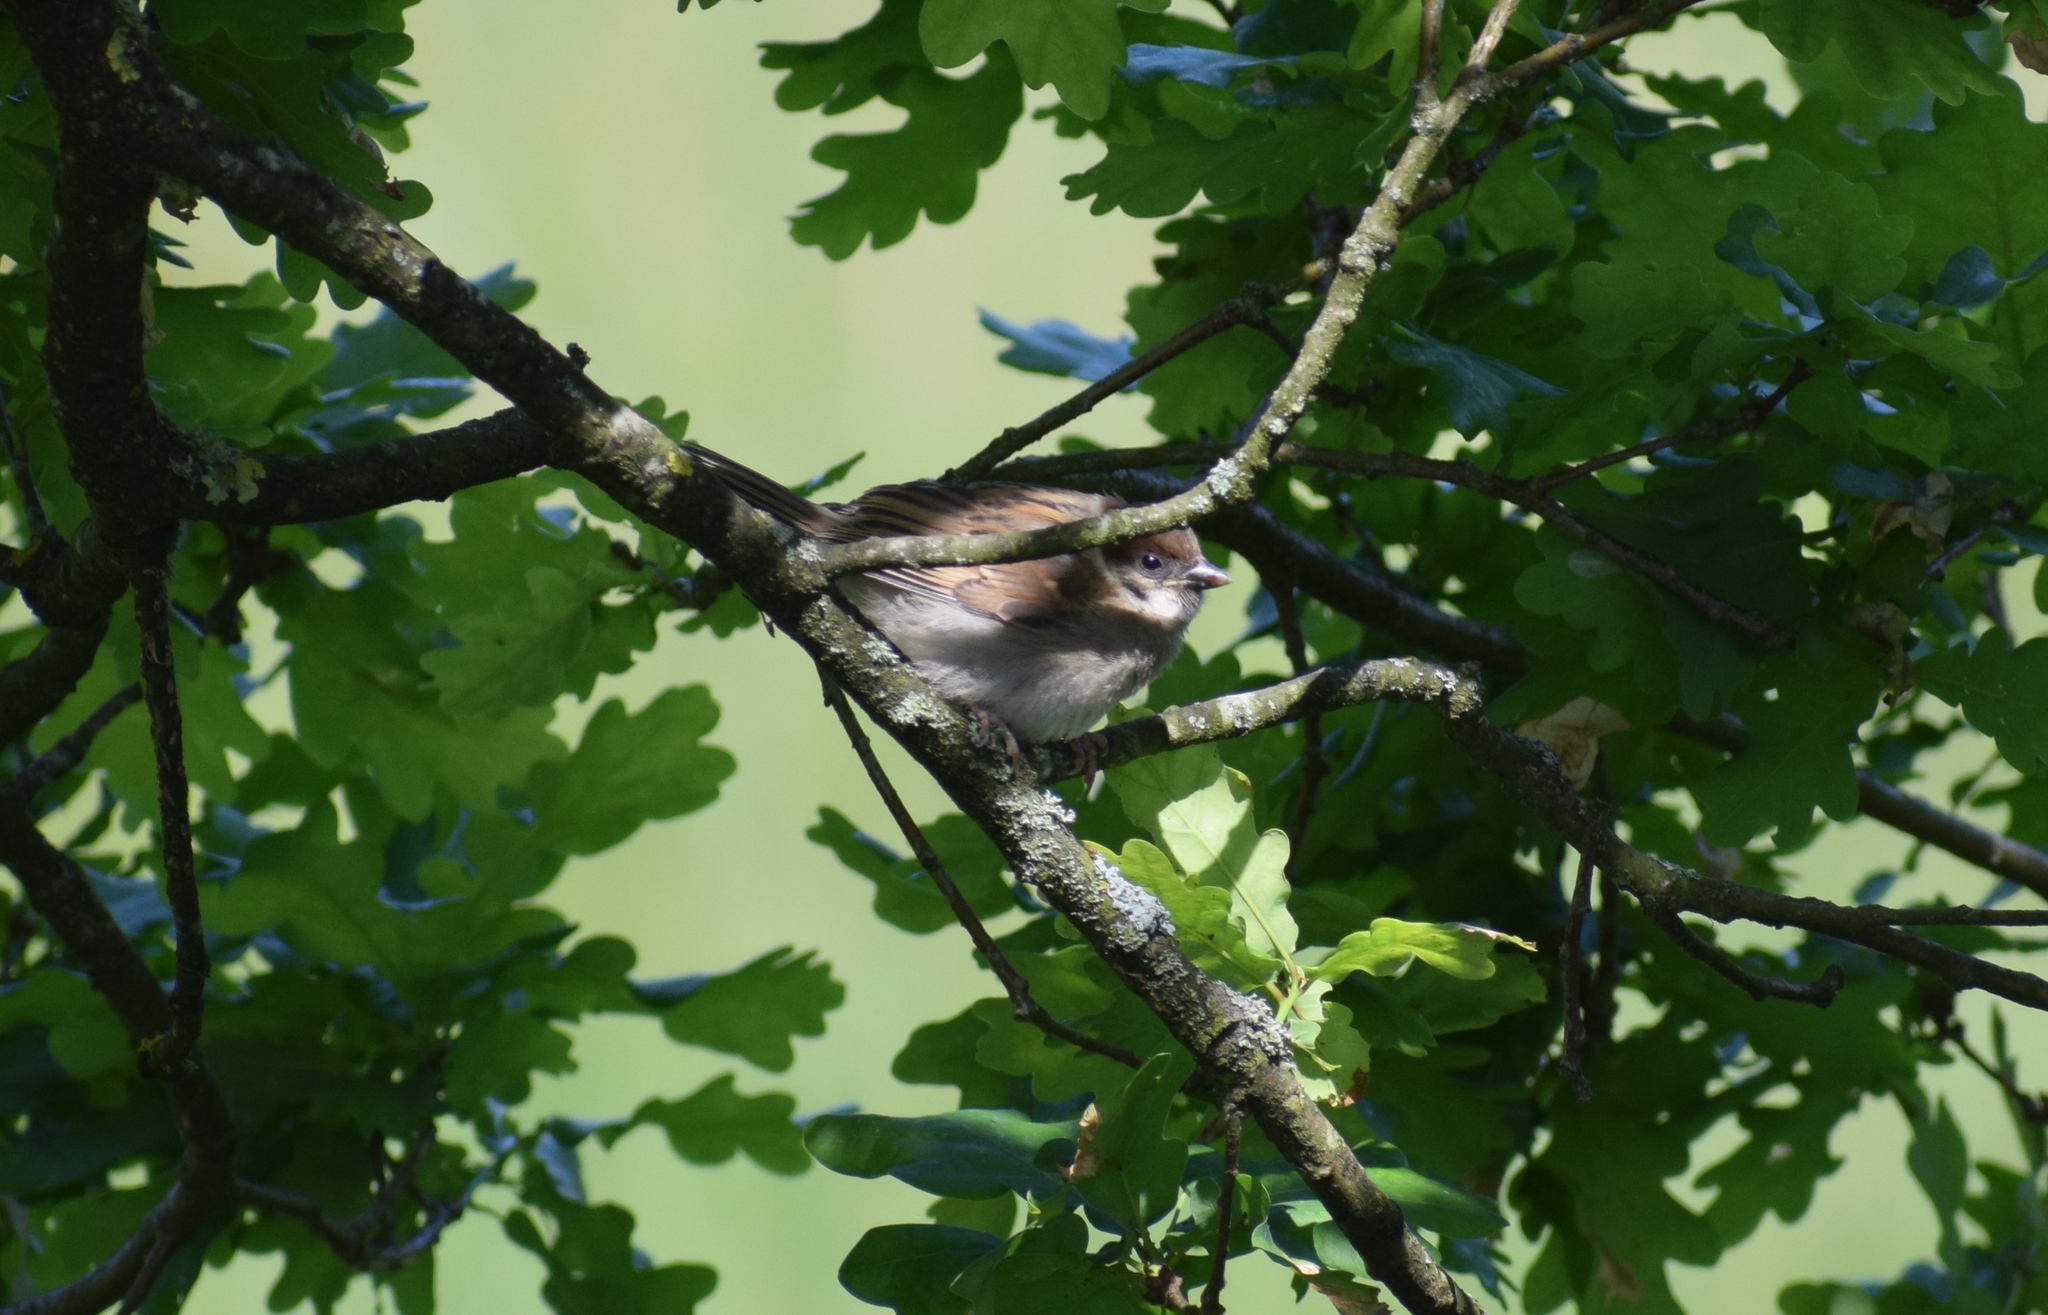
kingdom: Animalia
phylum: Chordata
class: Aves
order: Passeriformes
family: Passeridae
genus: Passer
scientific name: Passer montanus
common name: Eurasian tree sparrow
